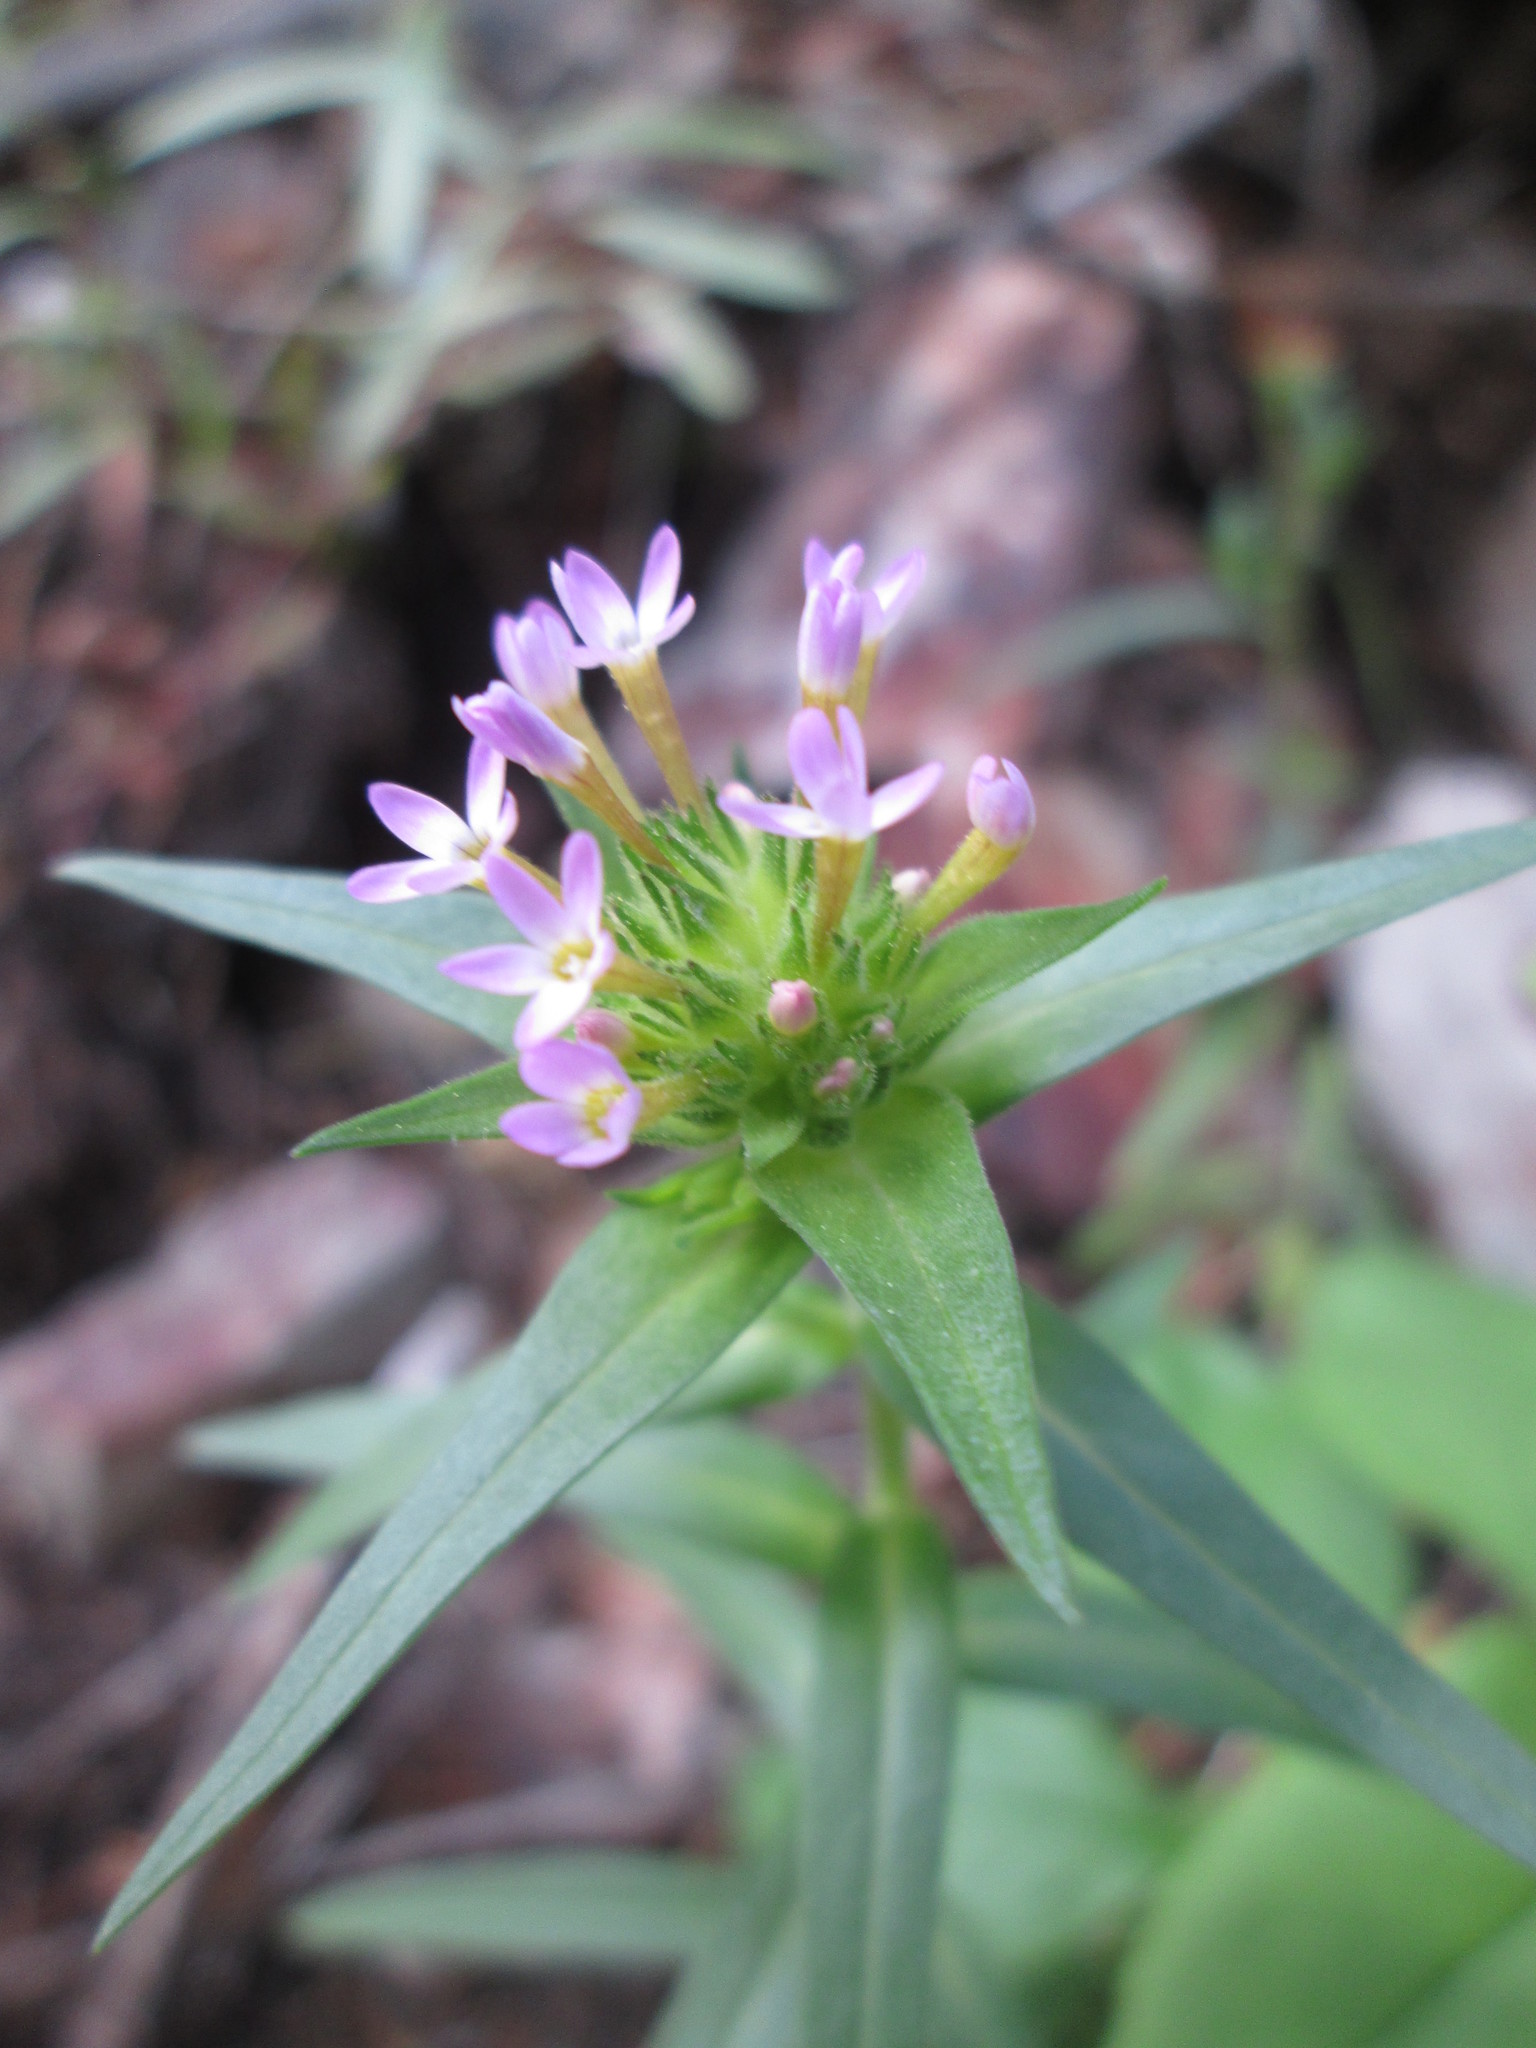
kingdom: Plantae
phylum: Tracheophyta
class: Magnoliopsida
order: Ericales
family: Polemoniaceae
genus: Collomia
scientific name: Collomia linearis
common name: Tiny trumpet
